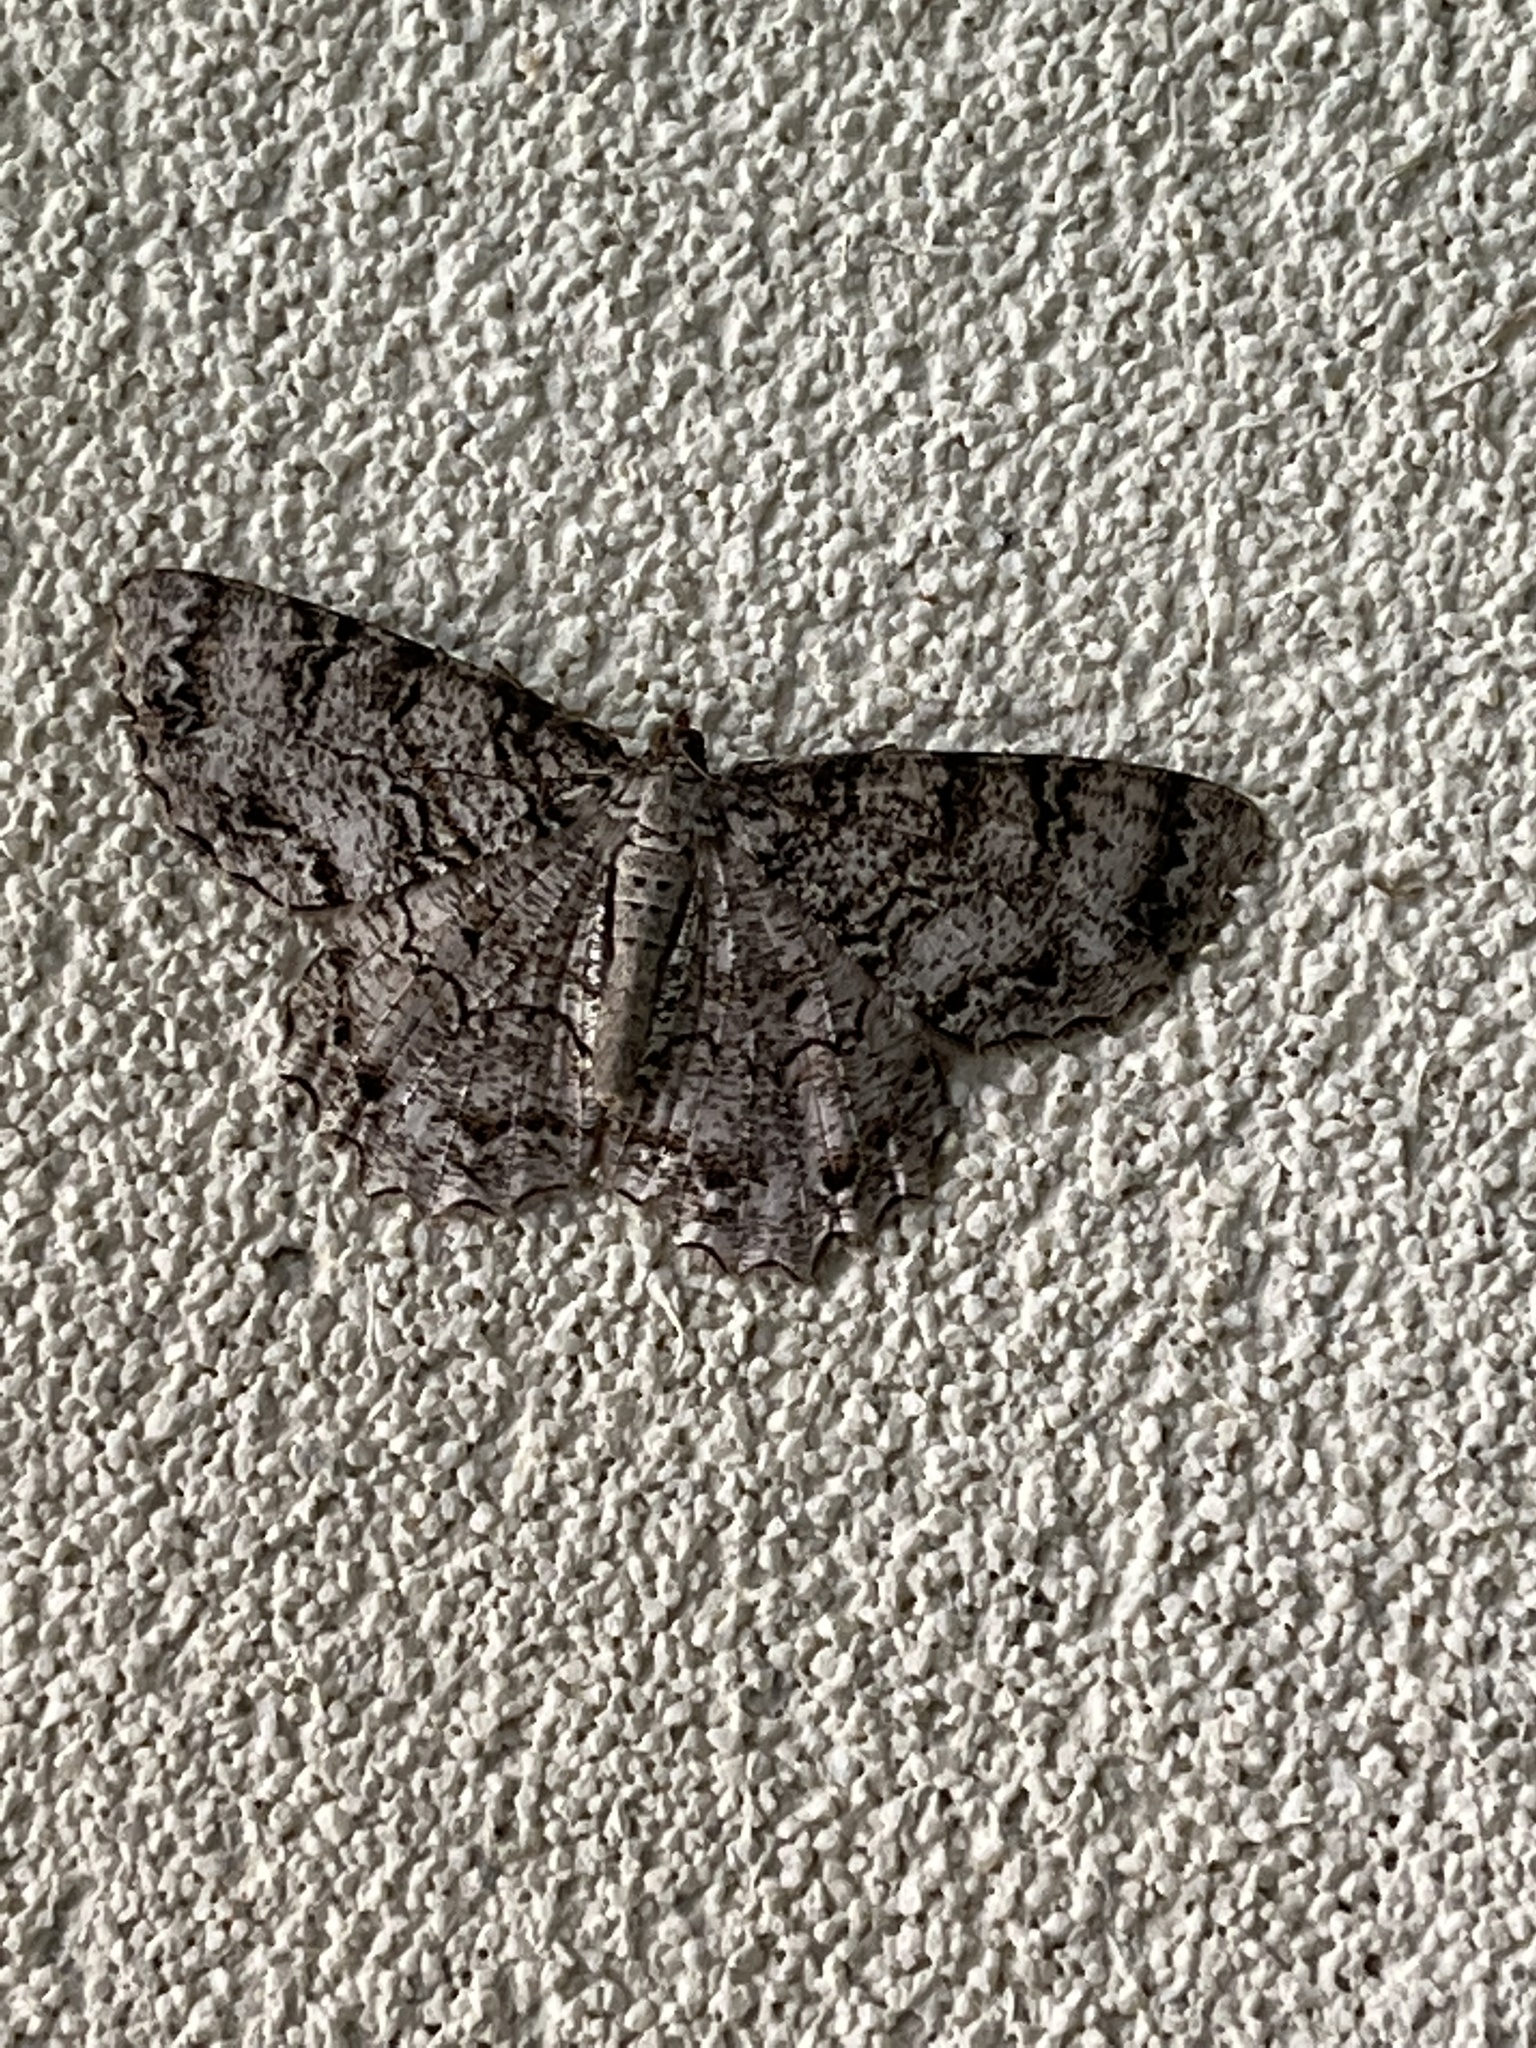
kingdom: Animalia
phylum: Arthropoda
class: Insecta
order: Lepidoptera
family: Geometridae
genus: Epimecis
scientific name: Epimecis hortaria
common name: Tulip-tree beauty
